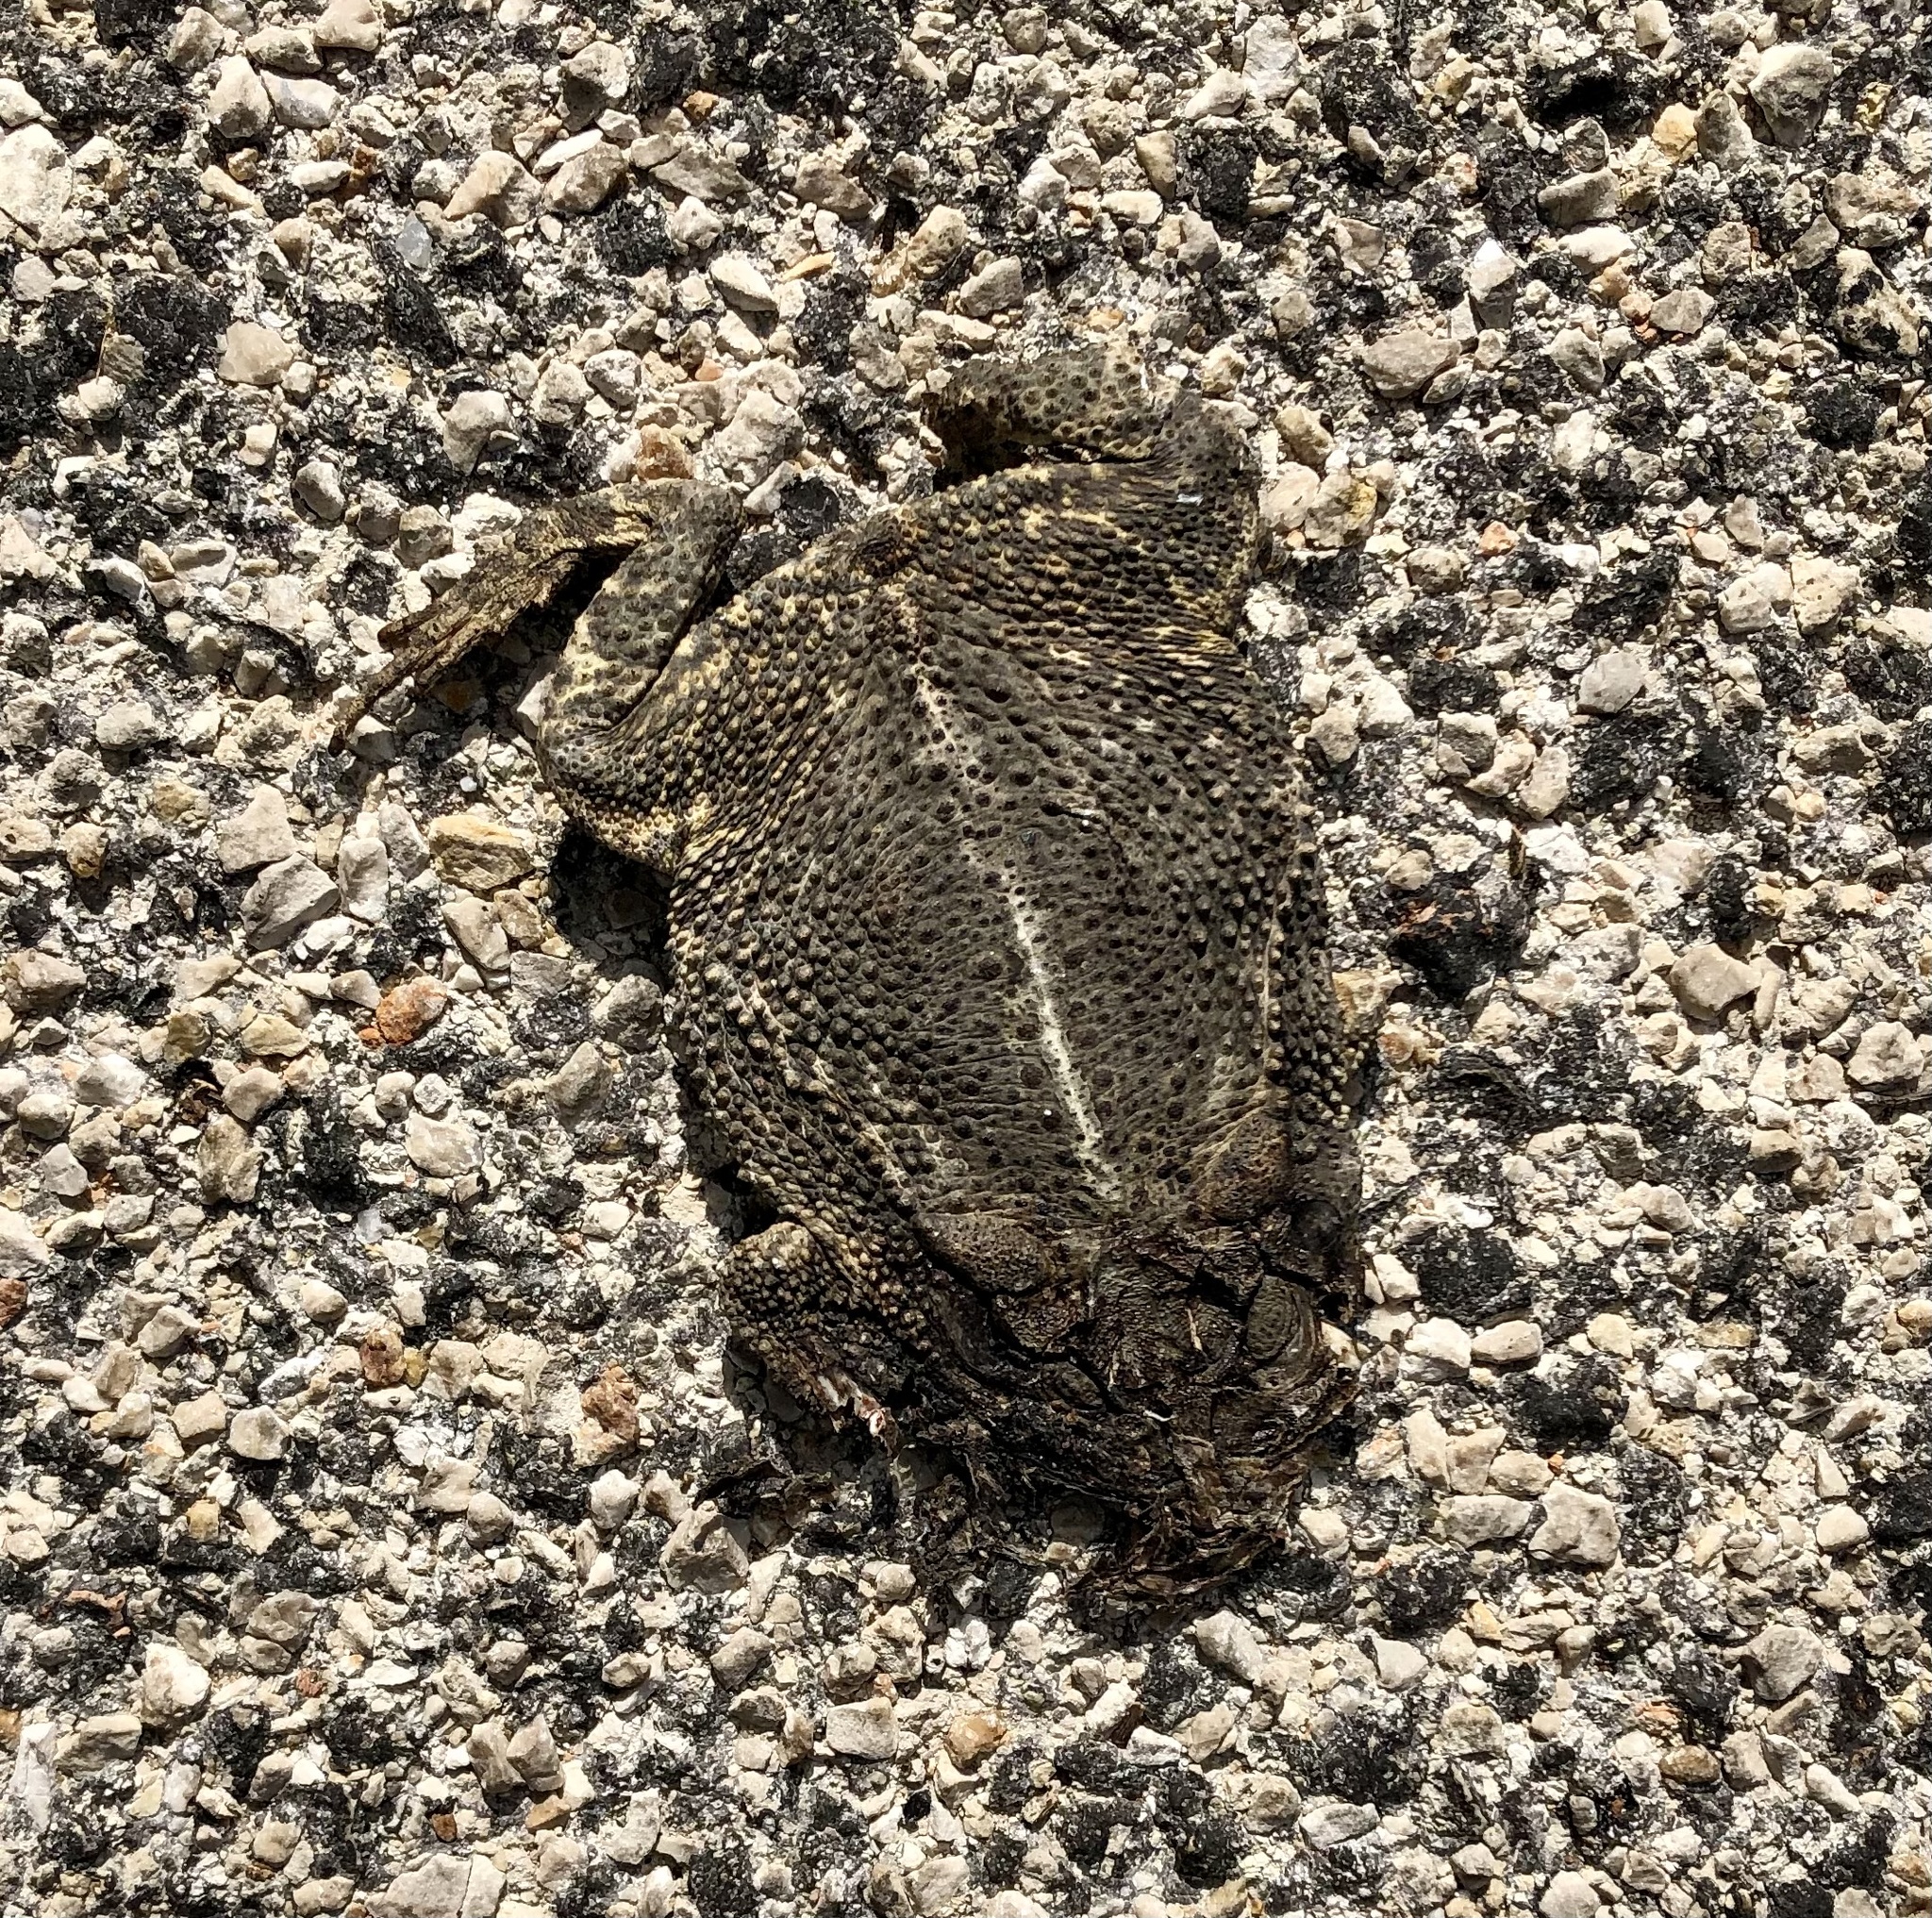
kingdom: Animalia
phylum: Chordata
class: Amphibia
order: Anura
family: Bufonidae
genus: Incilius
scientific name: Incilius nebulifer
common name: Gulf coast toad
